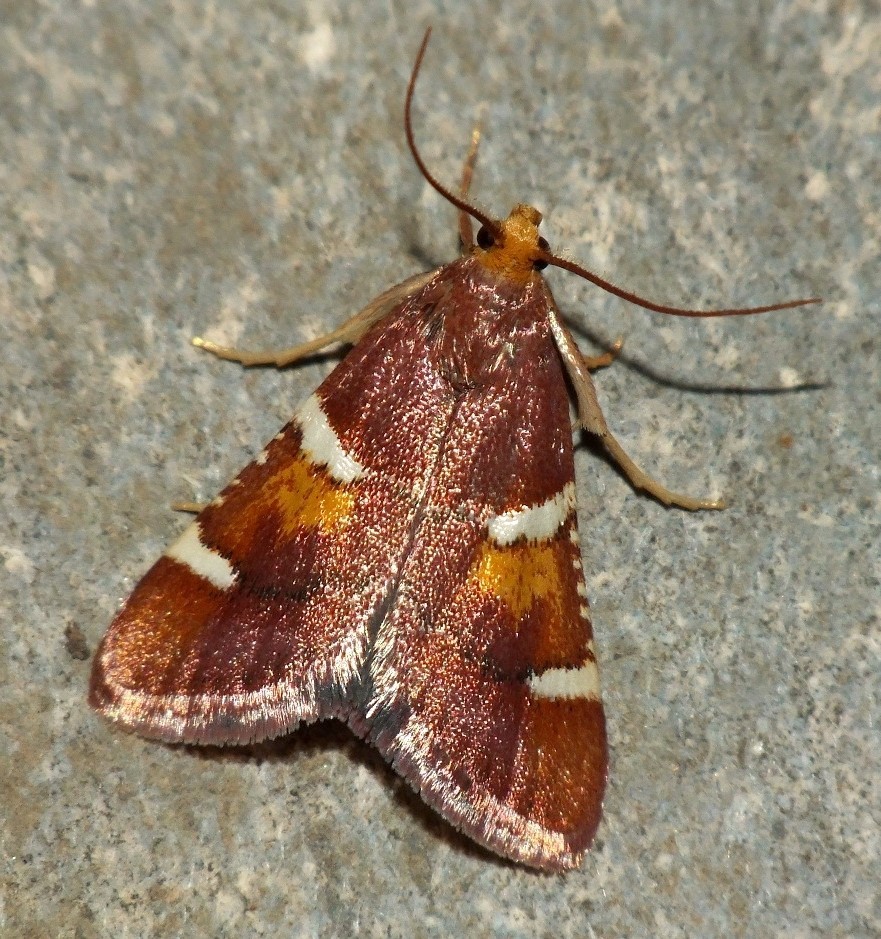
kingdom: Animalia
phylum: Arthropoda
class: Insecta
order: Lepidoptera
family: Pyralidae
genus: Pyralis
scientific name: Pyralis regalis
